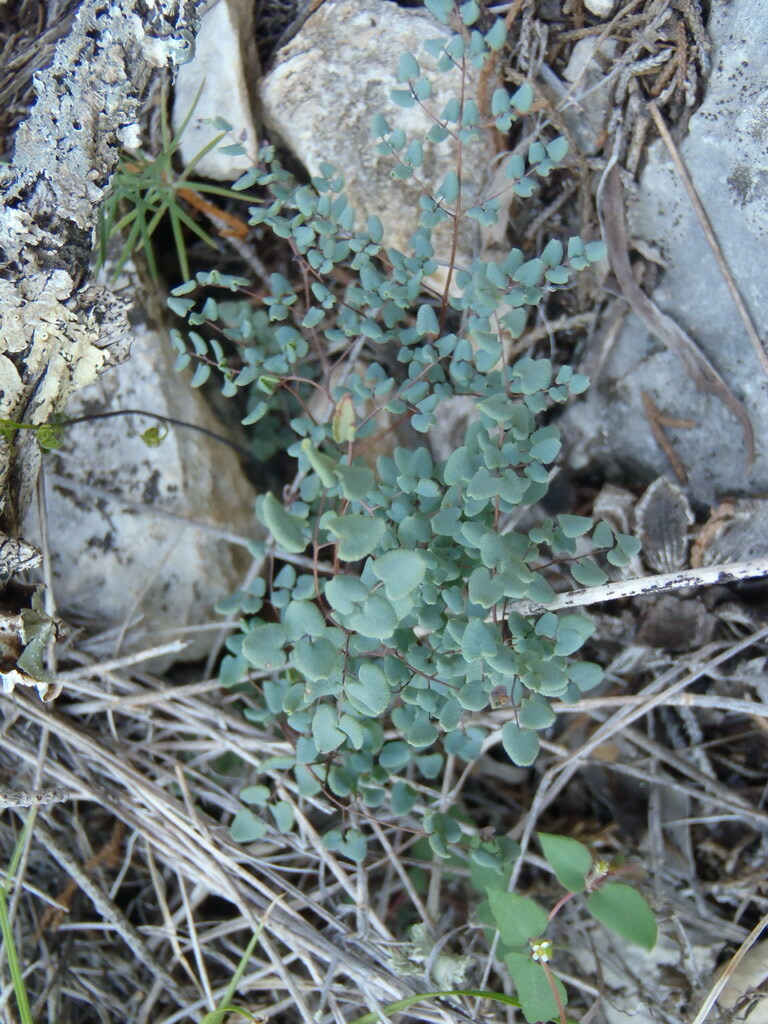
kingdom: Plantae
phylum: Tracheophyta
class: Polypodiopsida
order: Polypodiales
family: Pteridaceae
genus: Argyrochosma
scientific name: Argyrochosma microphylla
